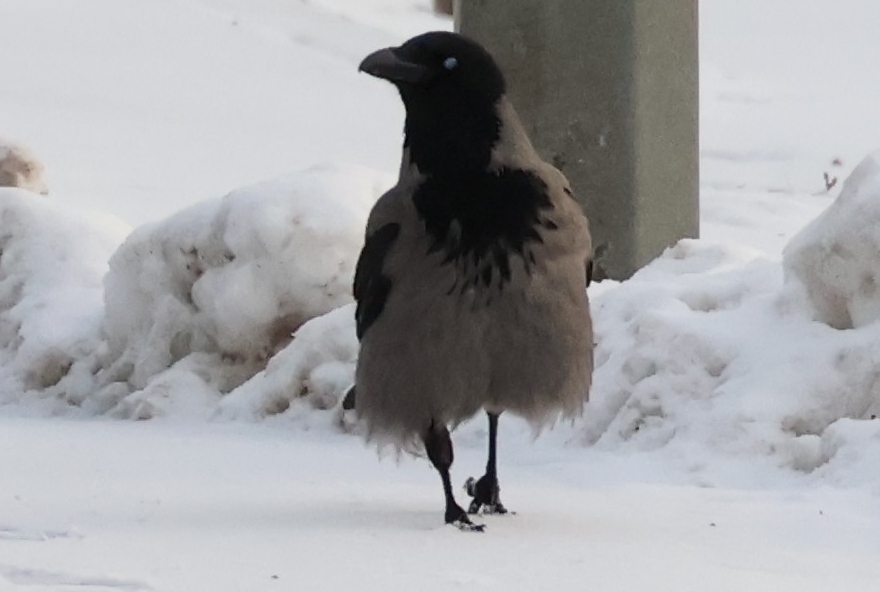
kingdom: Animalia
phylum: Chordata
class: Aves
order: Passeriformes
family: Corvidae
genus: Corvus
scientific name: Corvus cornix
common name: Hooded crow
